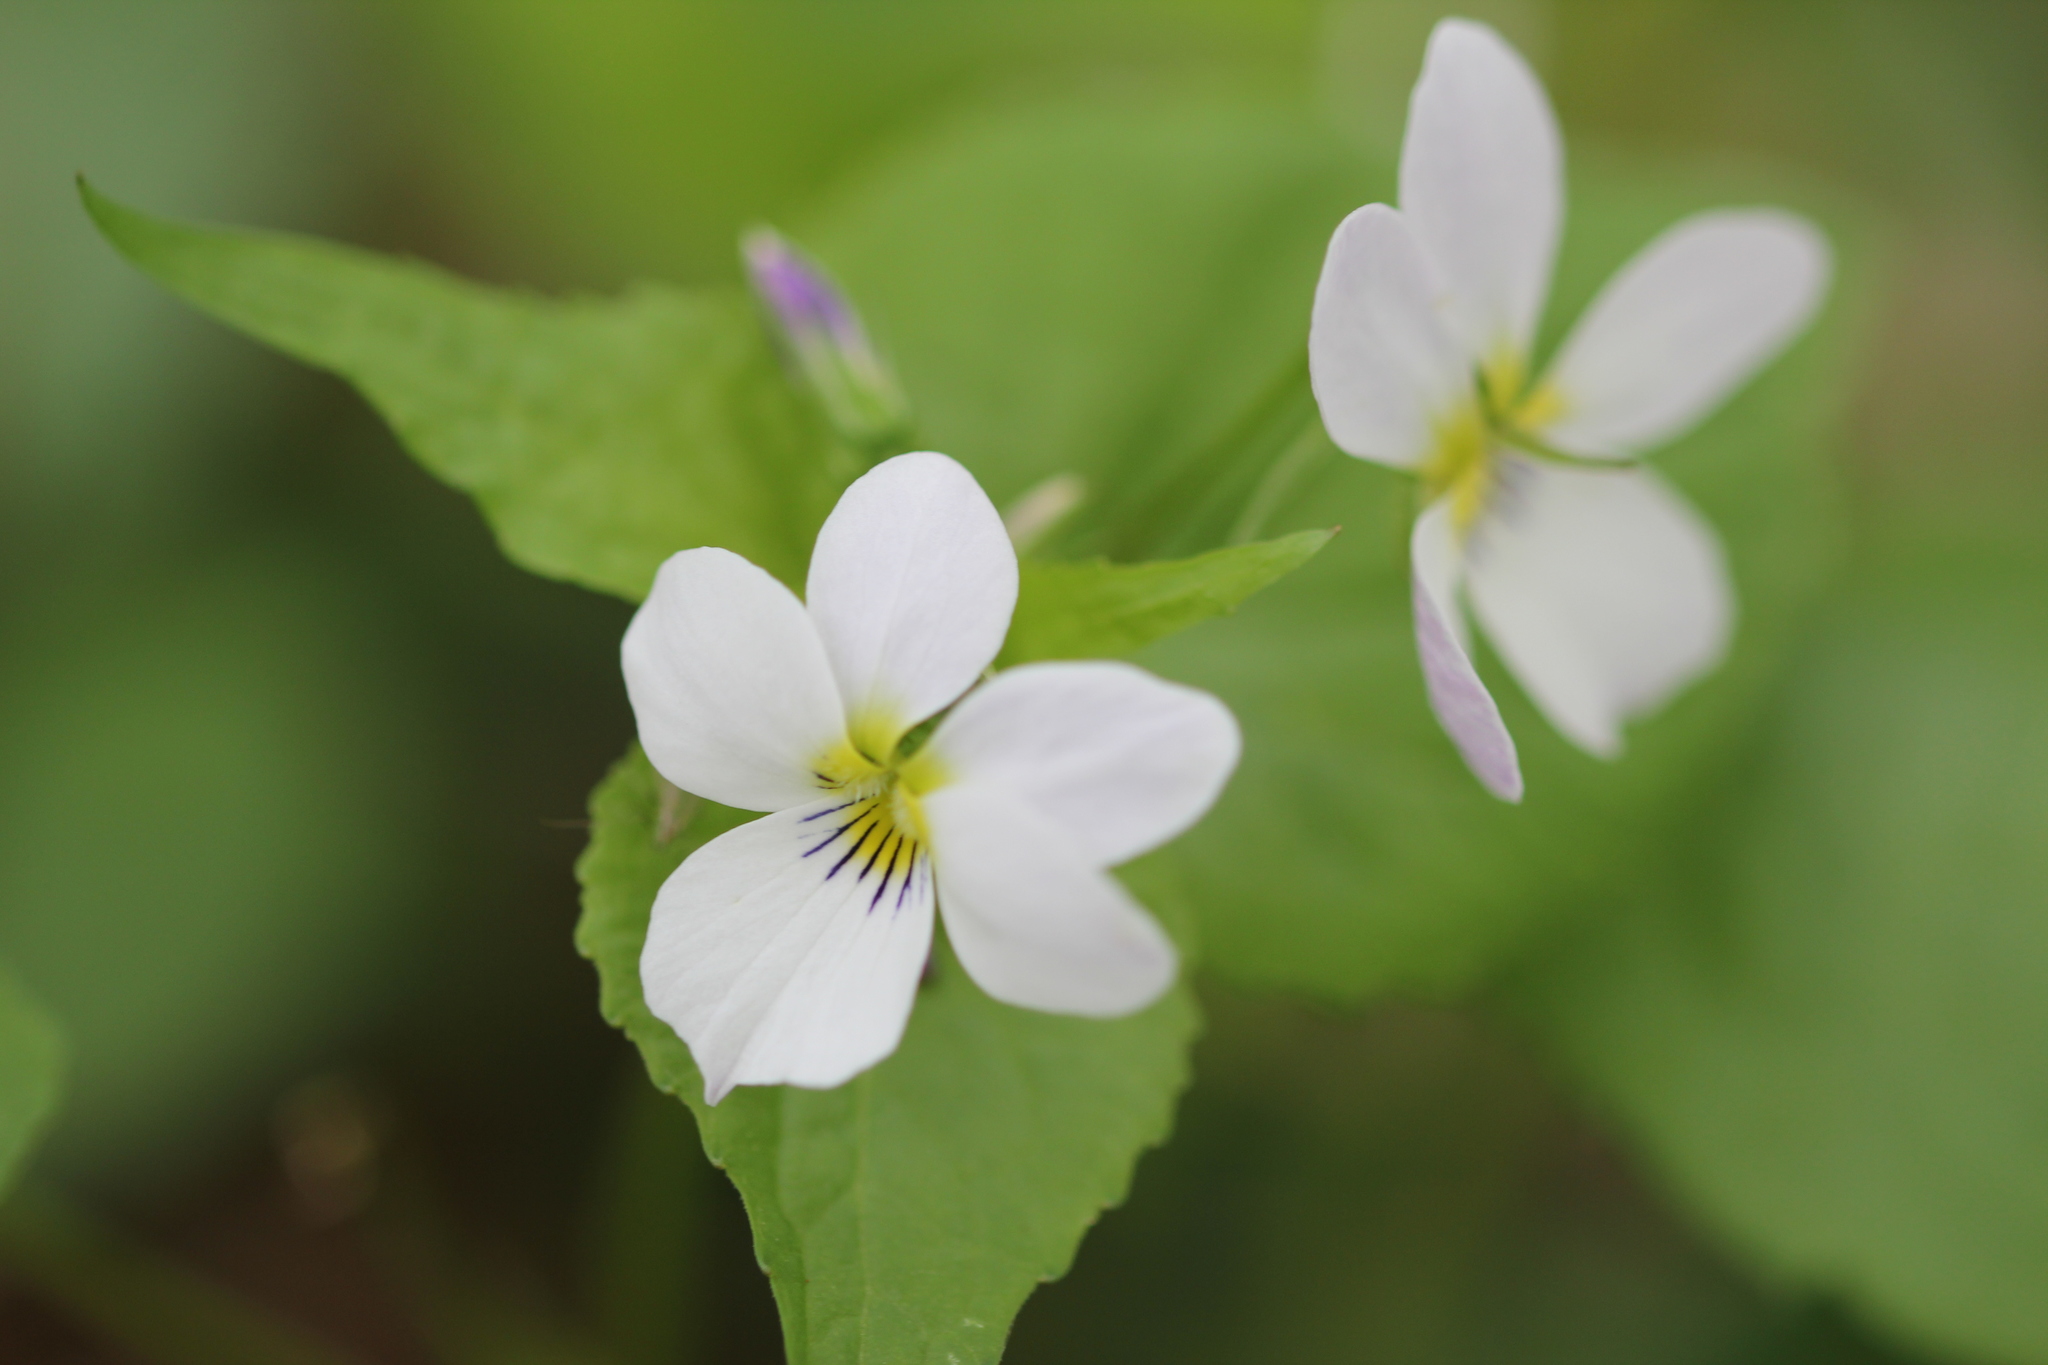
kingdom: Plantae
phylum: Tracheophyta
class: Magnoliopsida
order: Malpighiales
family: Violaceae
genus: Viola
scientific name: Viola canadensis
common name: Canada violet
